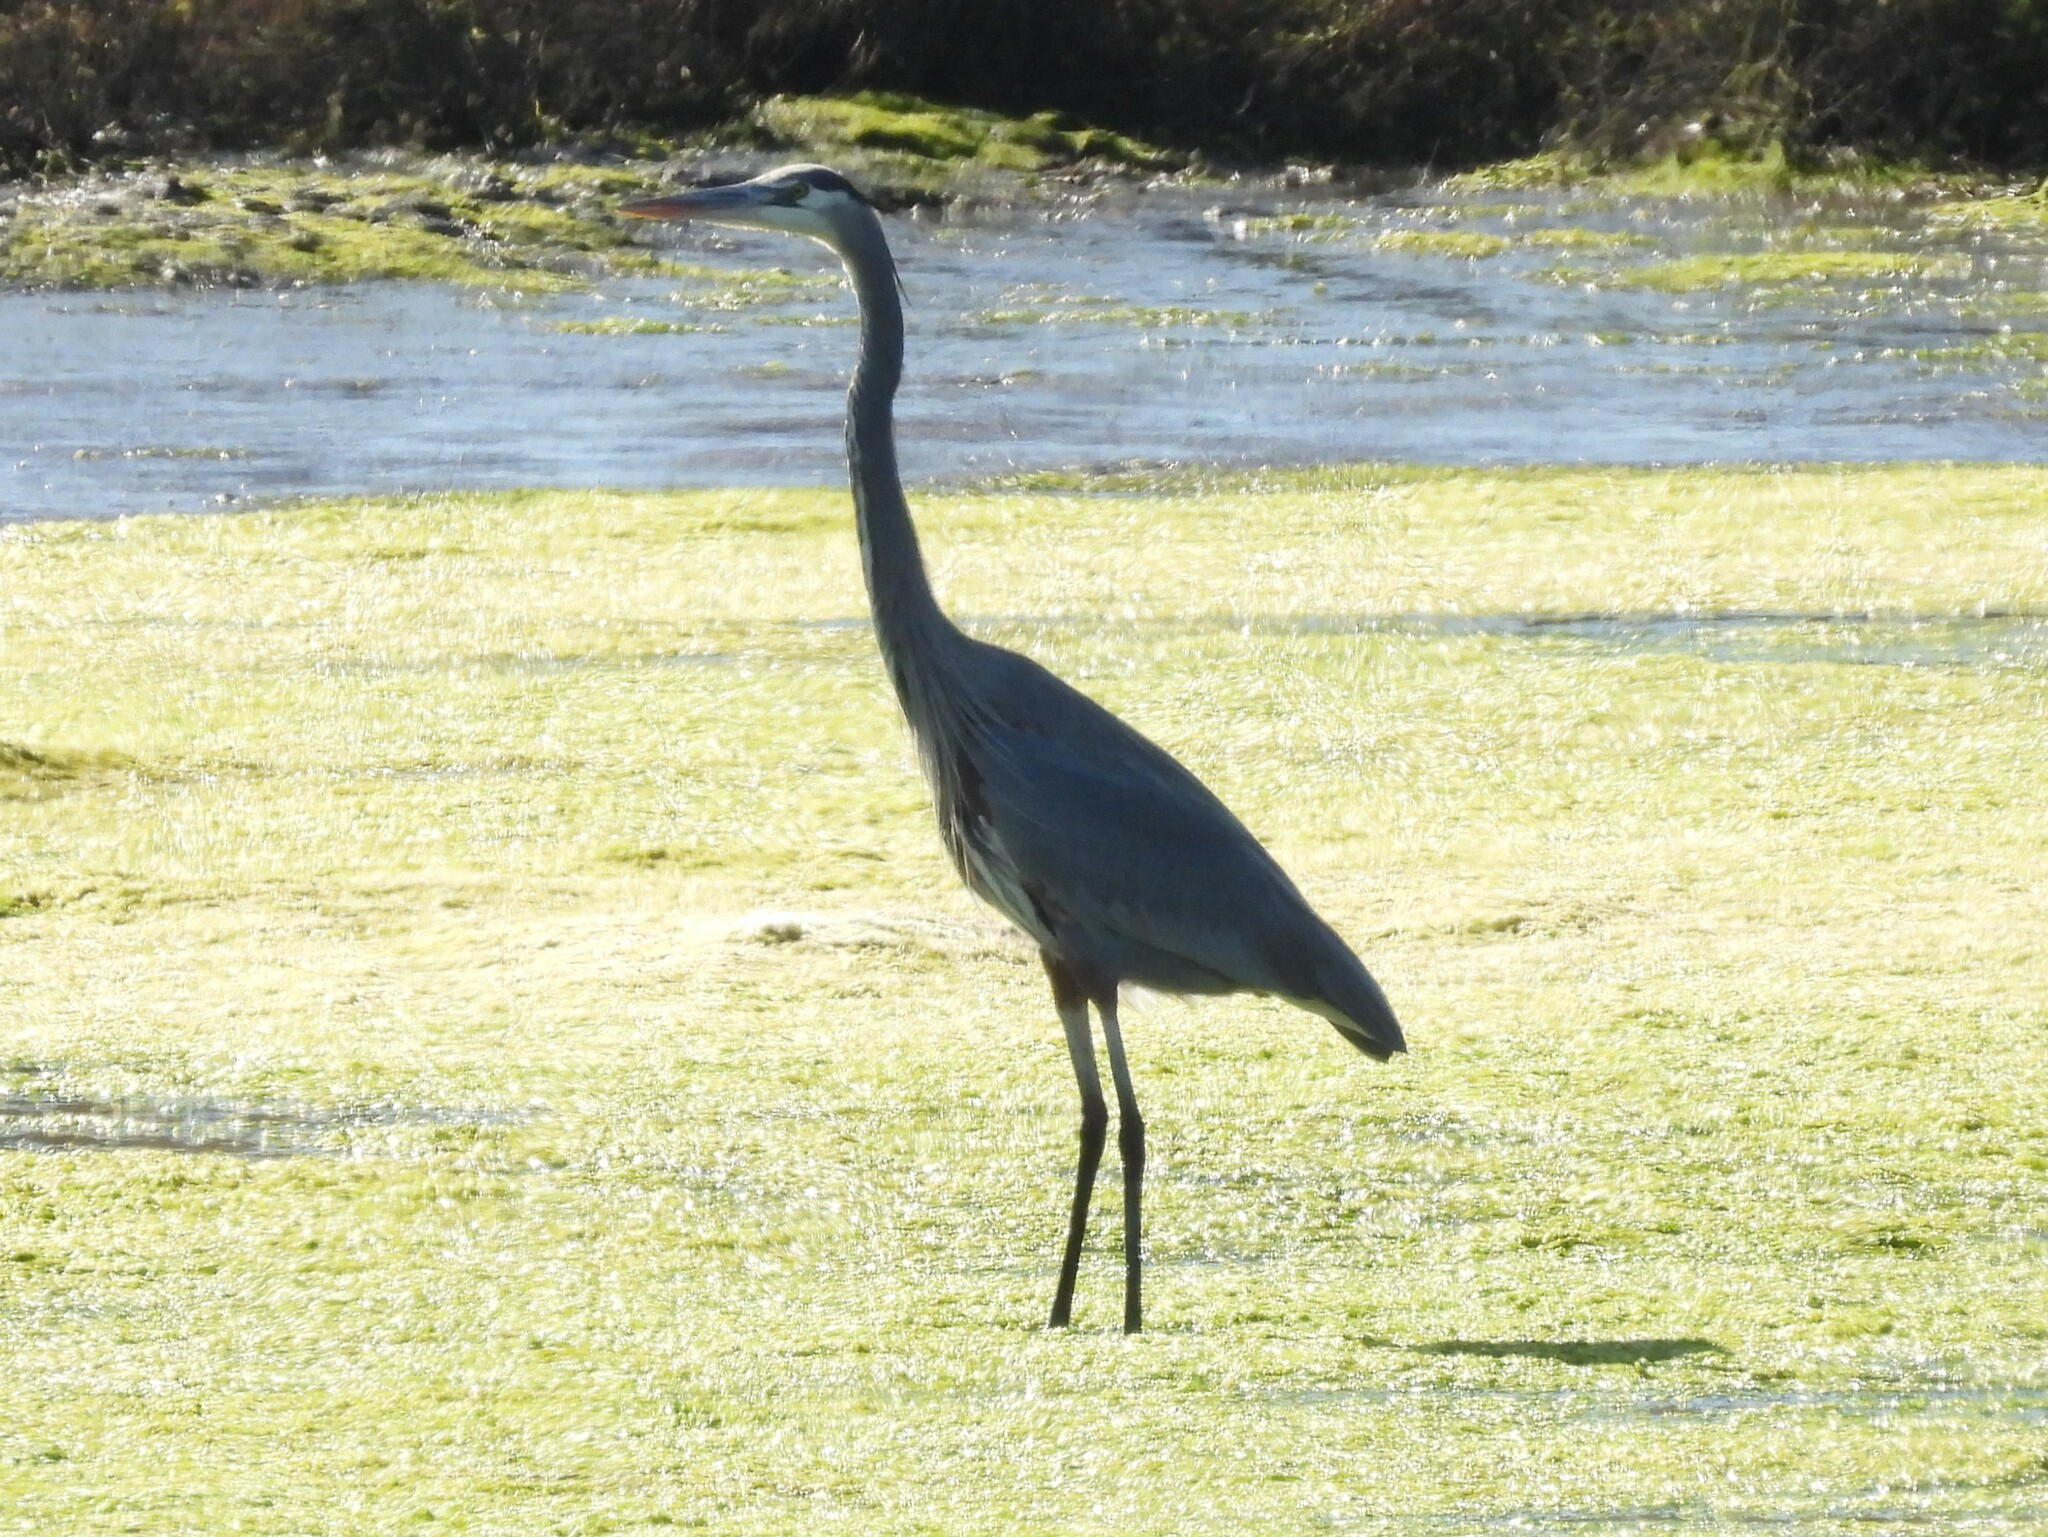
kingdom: Animalia
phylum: Chordata
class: Aves
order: Pelecaniformes
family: Ardeidae
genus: Ardea
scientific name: Ardea herodias
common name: Great blue heron
